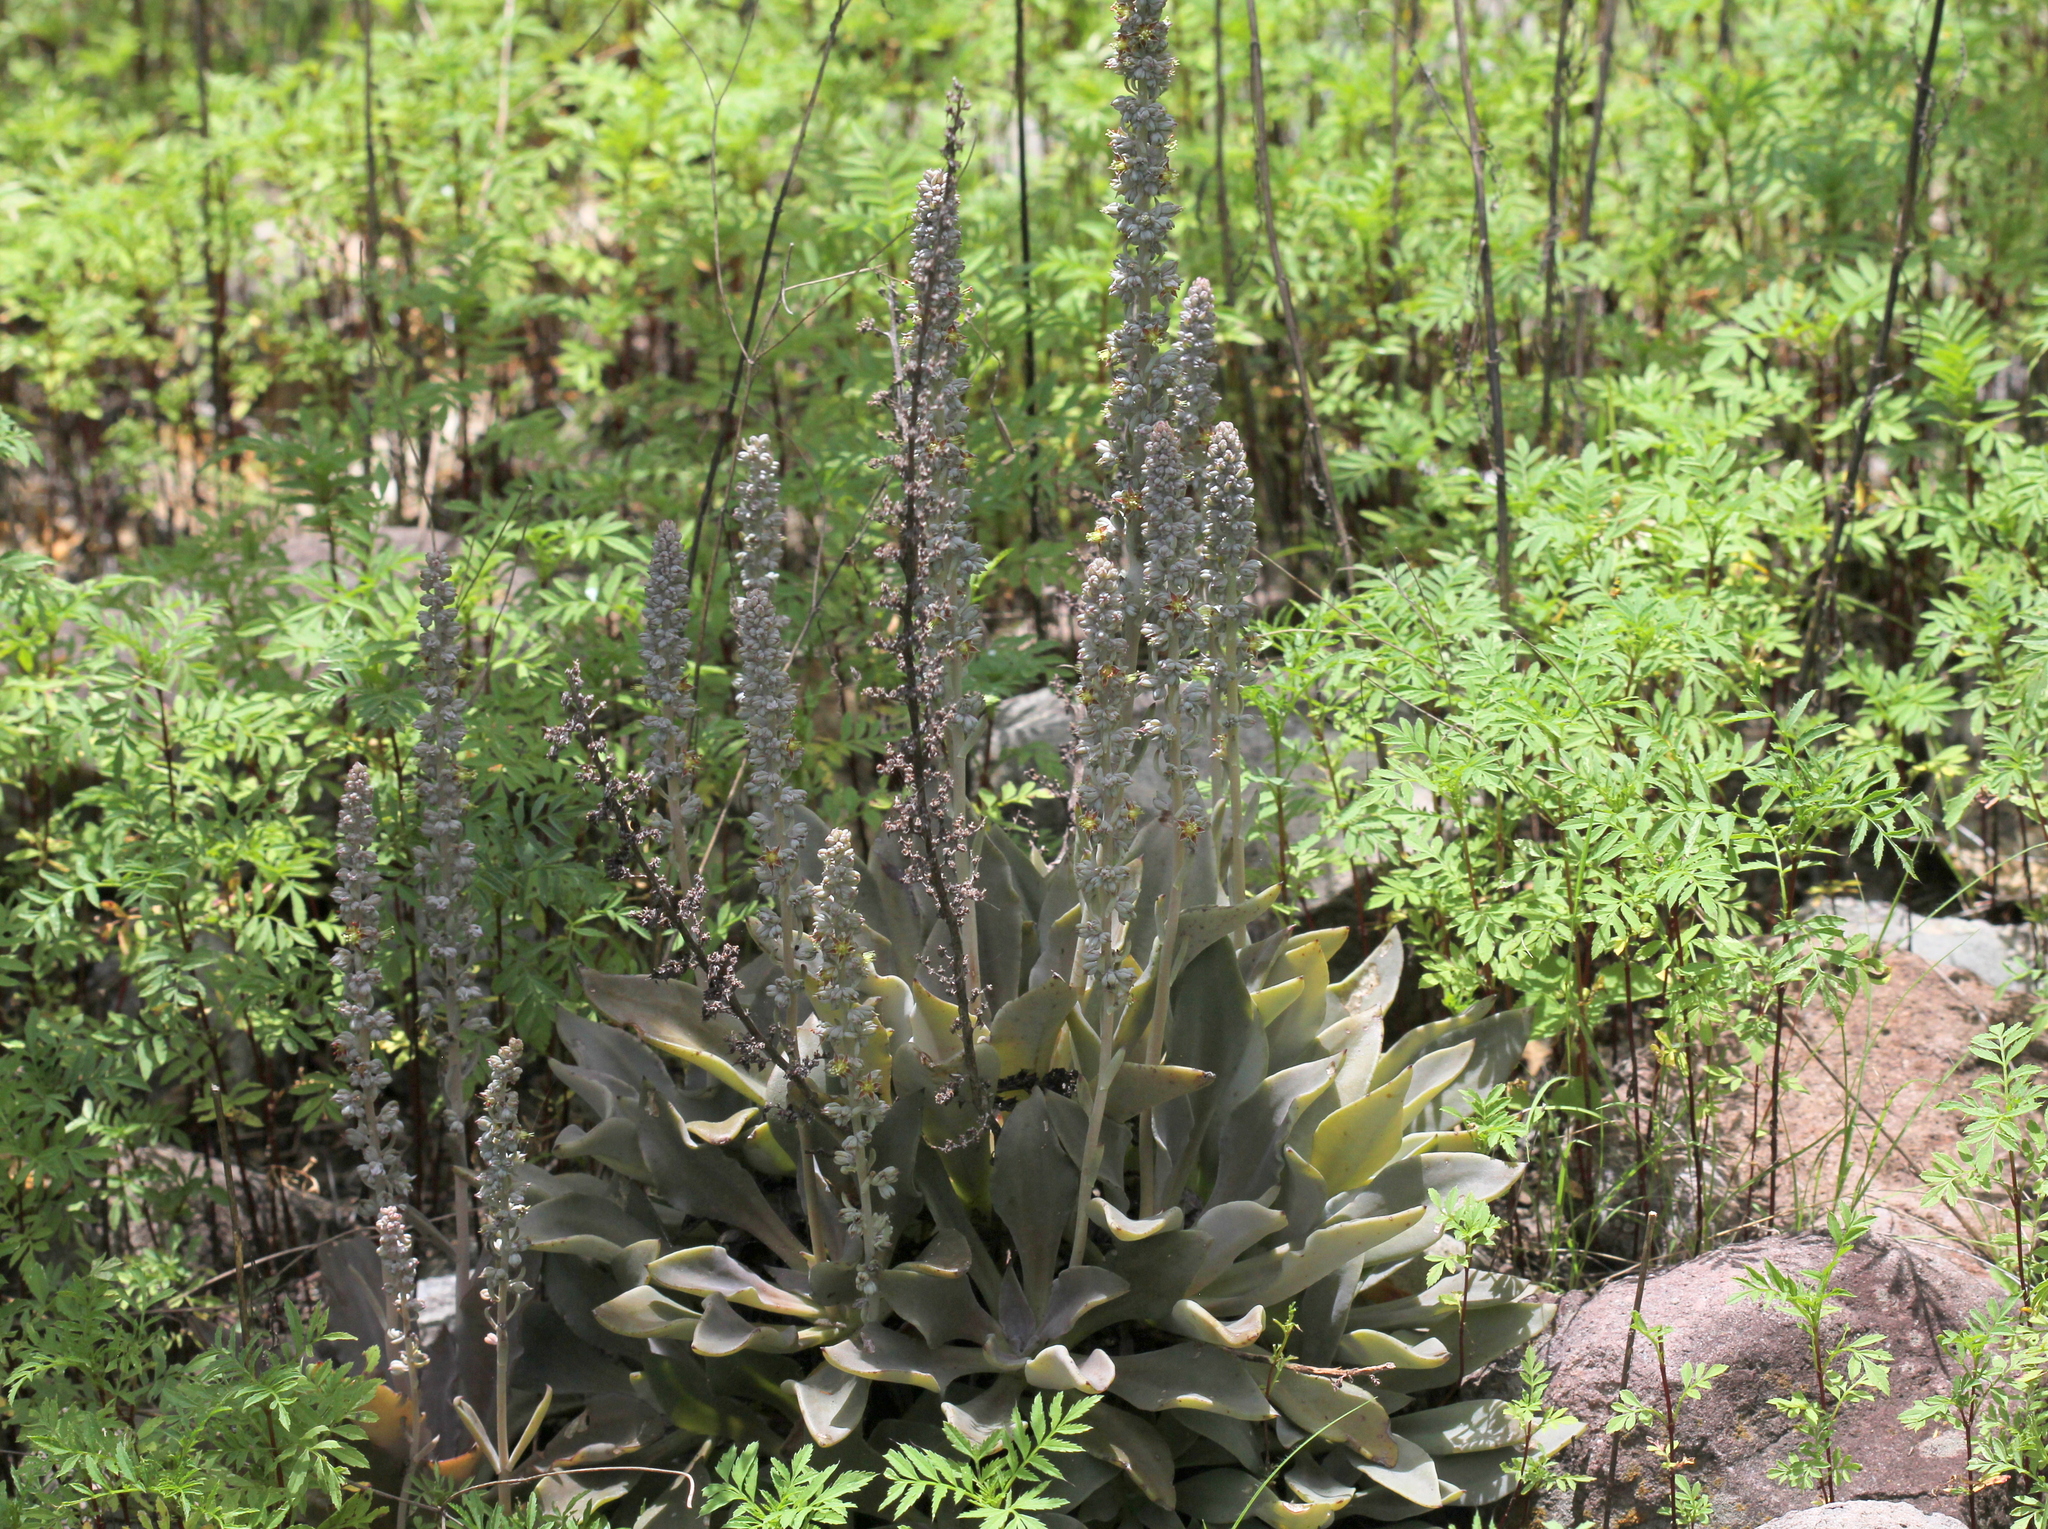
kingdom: Plantae
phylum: Tracheophyta
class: Magnoliopsida
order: Saxifragales
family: Crassulaceae
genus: Thompsonella
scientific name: Thompsonella minutiflora
